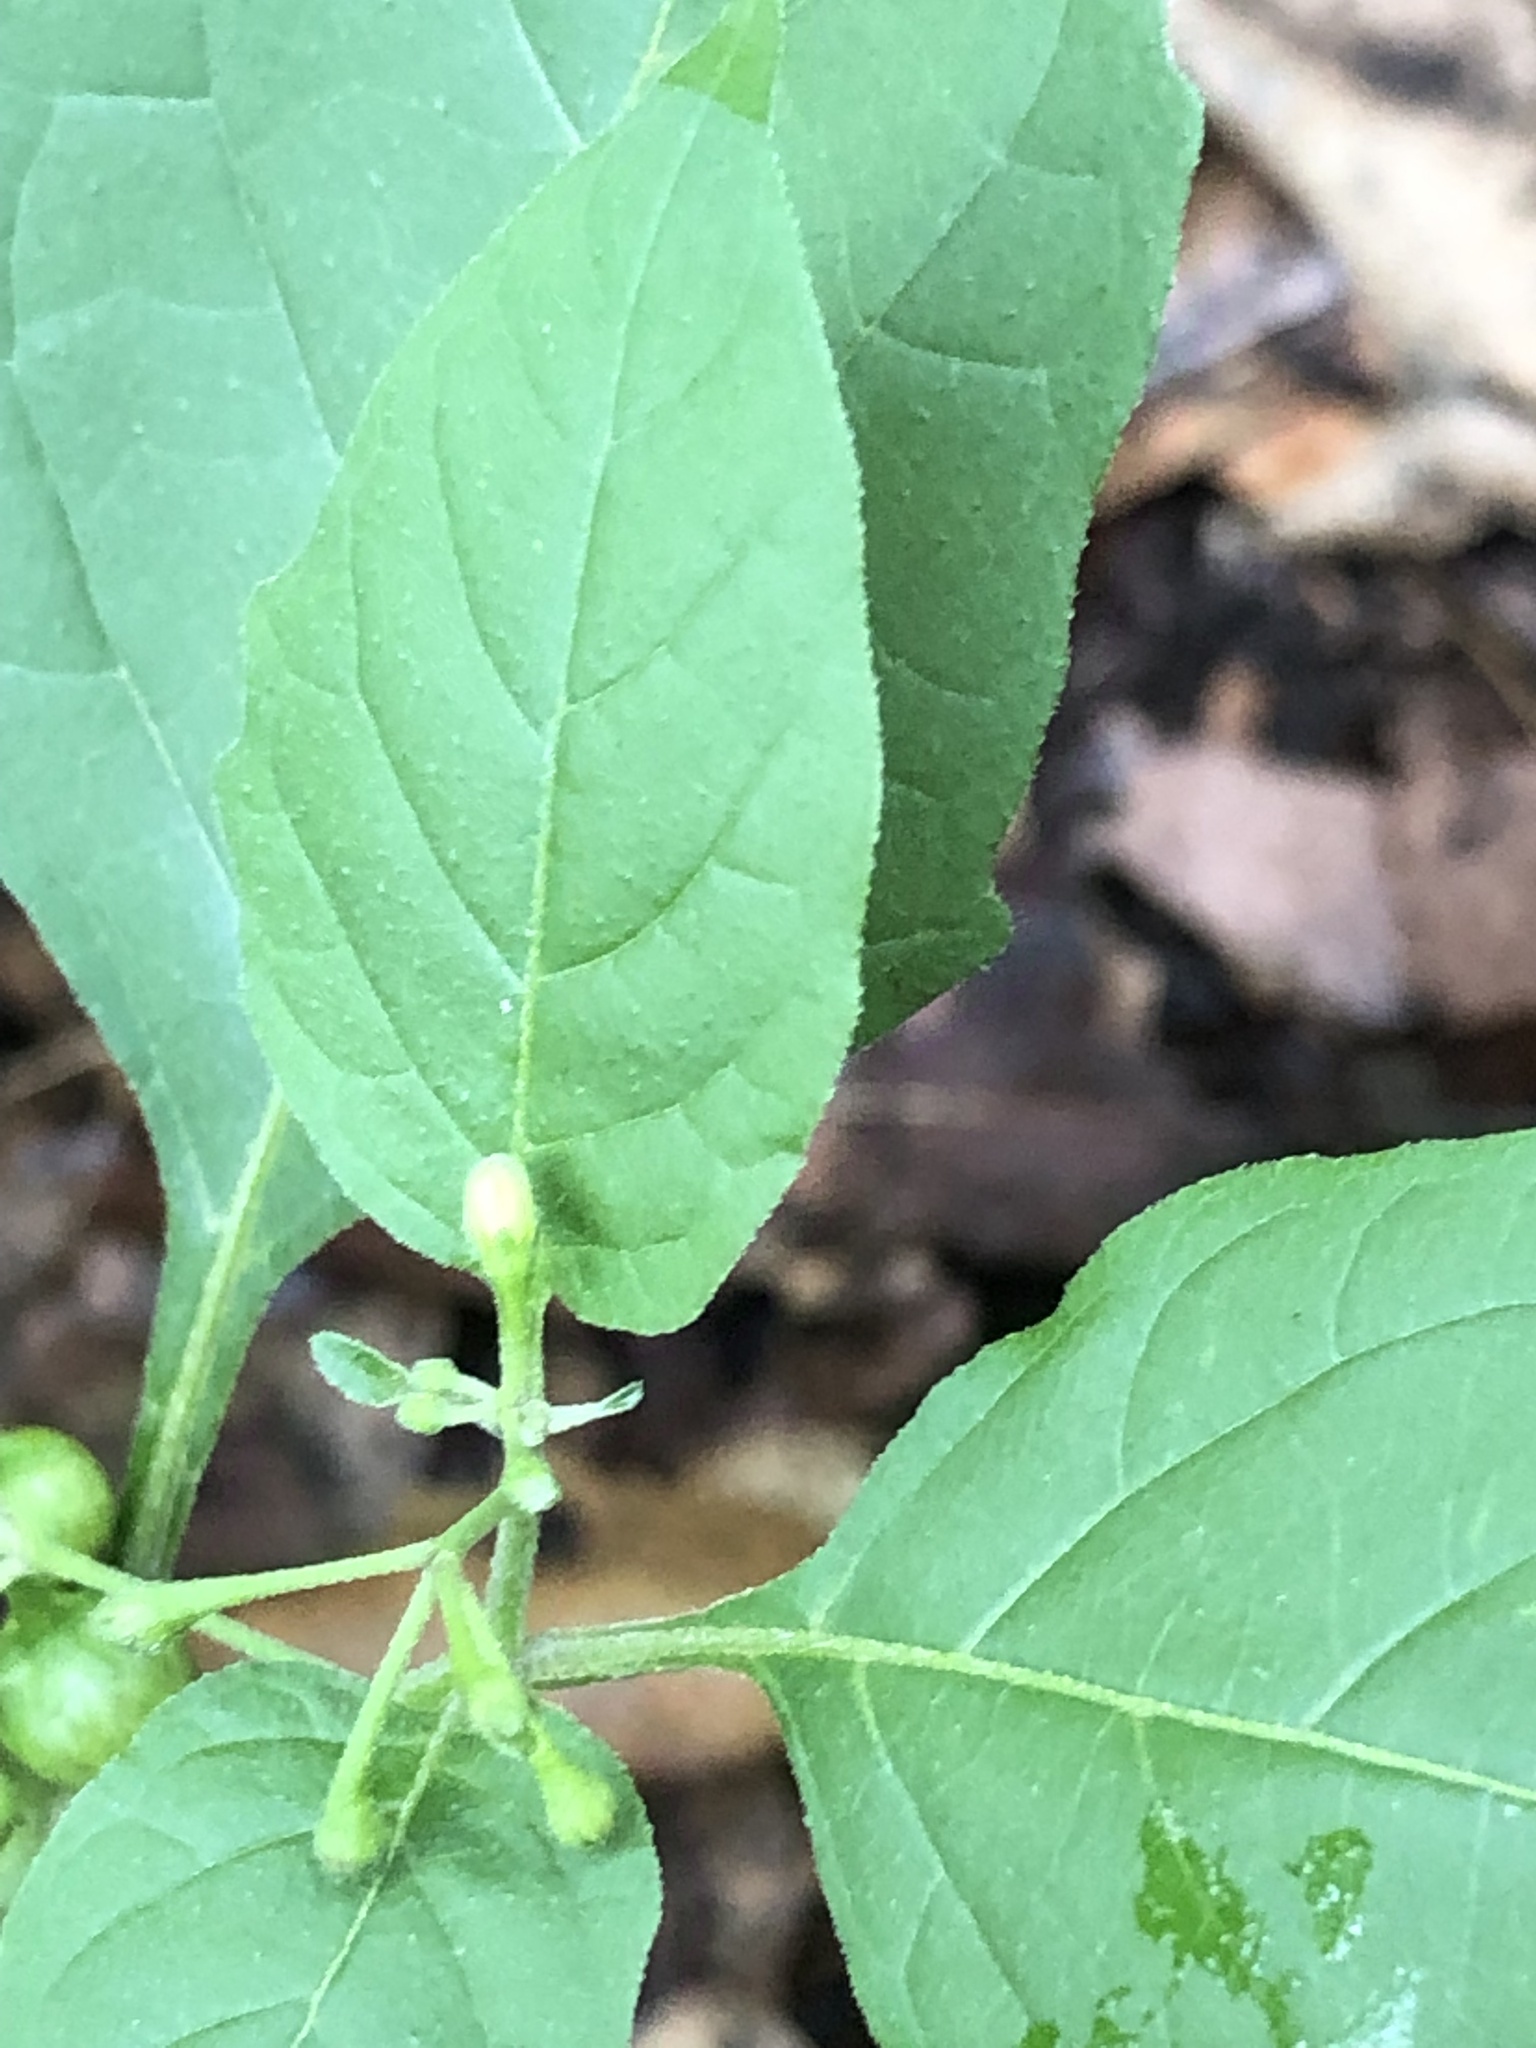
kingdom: Plantae
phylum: Tracheophyta
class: Magnoliopsida
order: Solanales
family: Solanaceae
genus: Solanum
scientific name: Solanum emulans
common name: Eastern black nightshade
